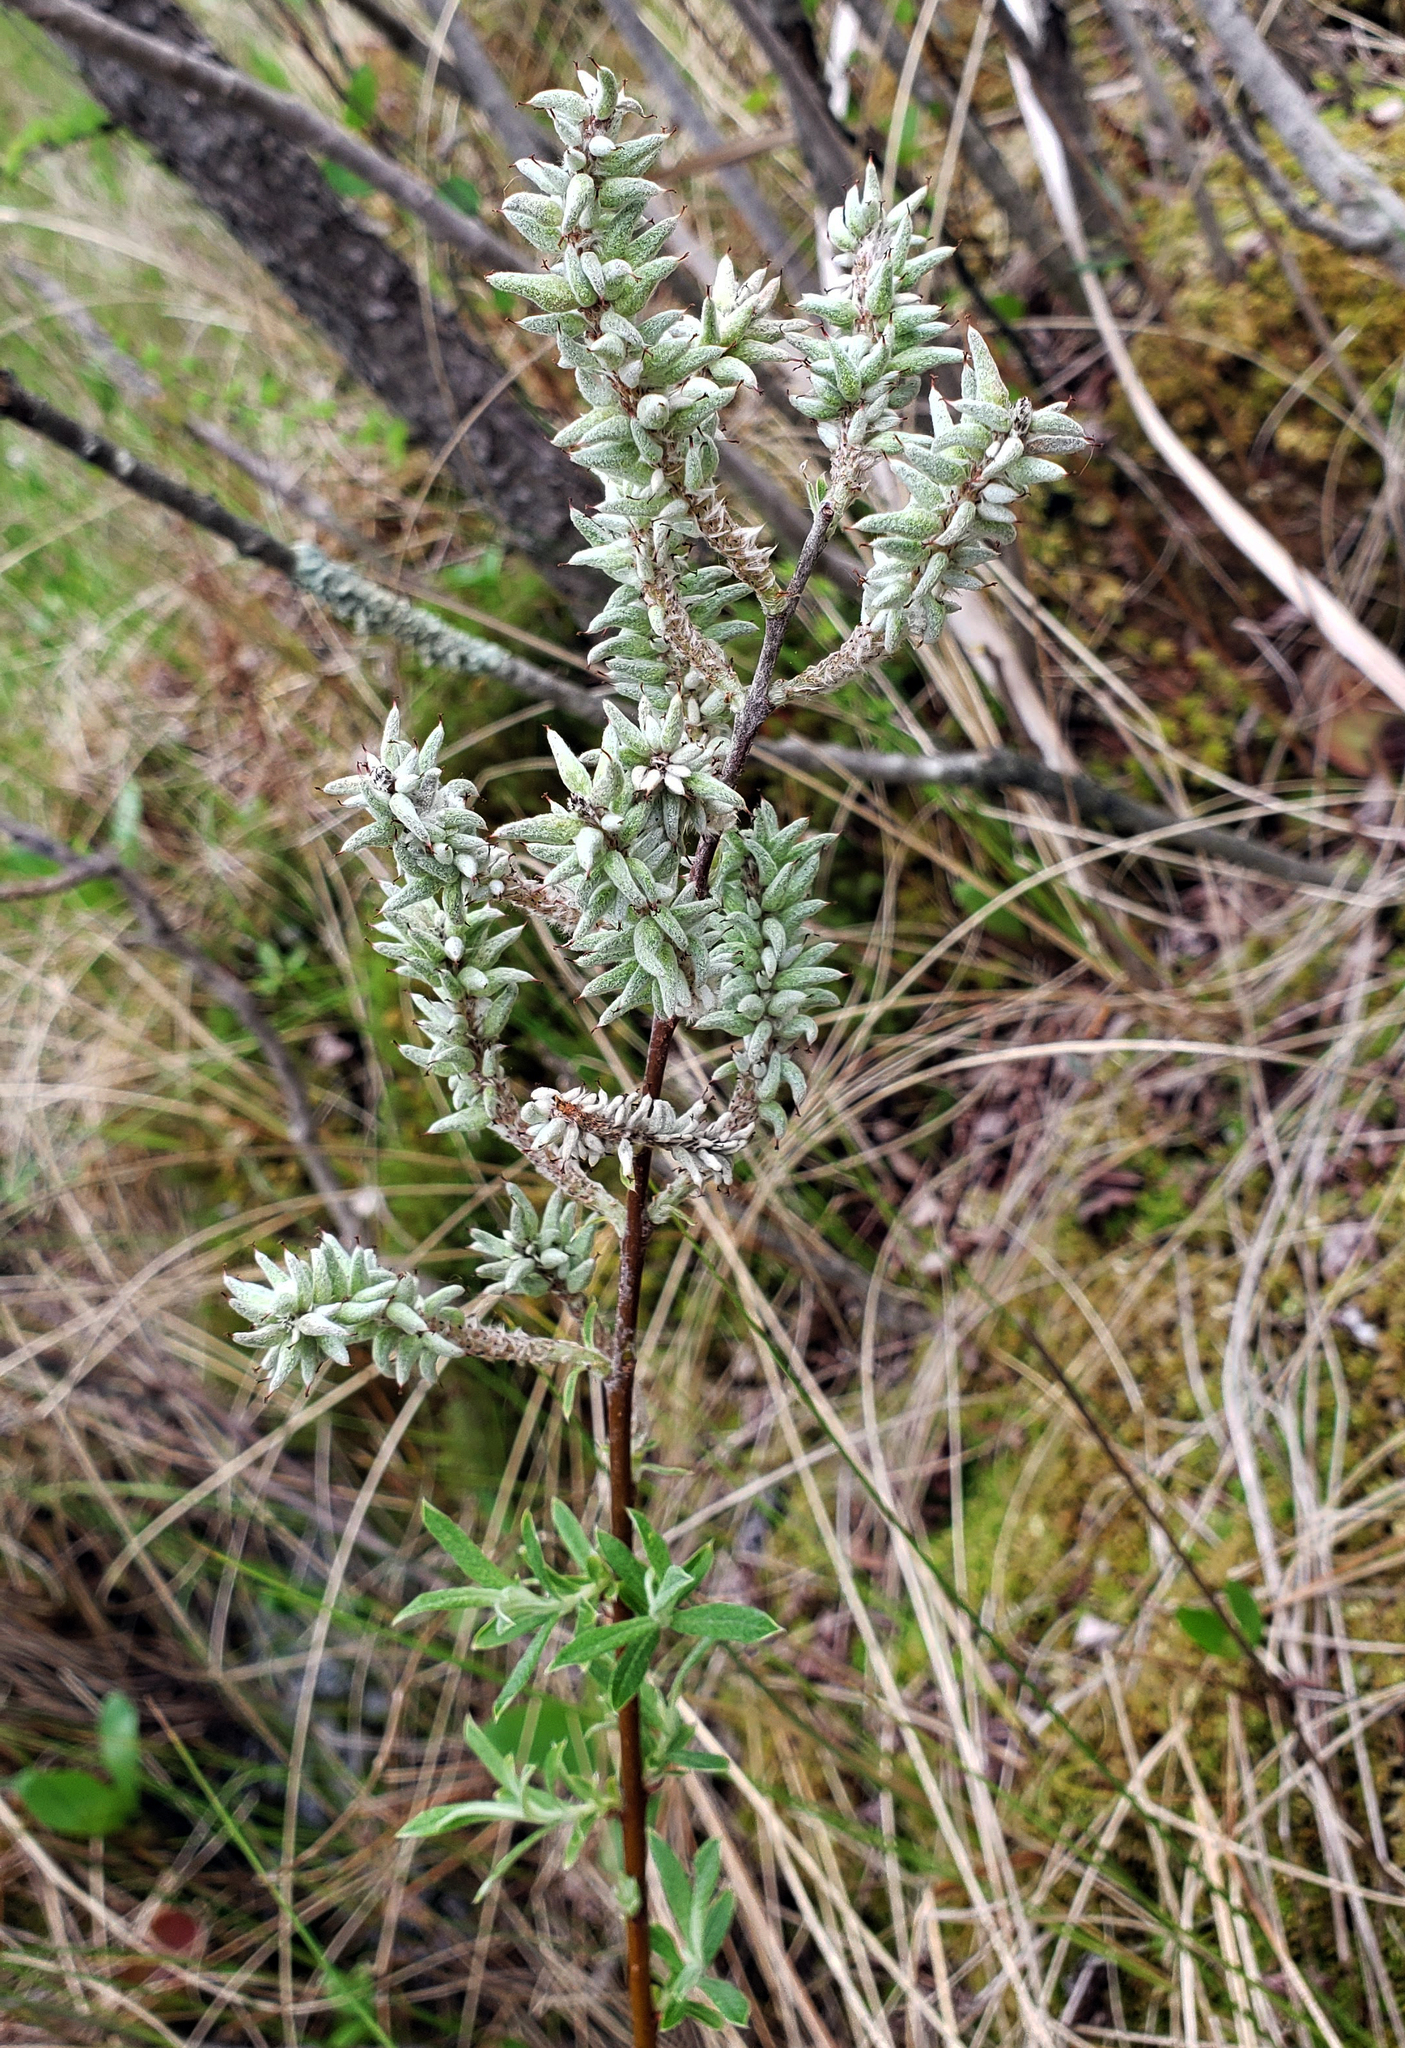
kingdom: Plantae
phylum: Tracheophyta
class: Magnoliopsida
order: Malpighiales
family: Salicaceae
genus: Salix
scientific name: Salix candida
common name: Hoary willow
